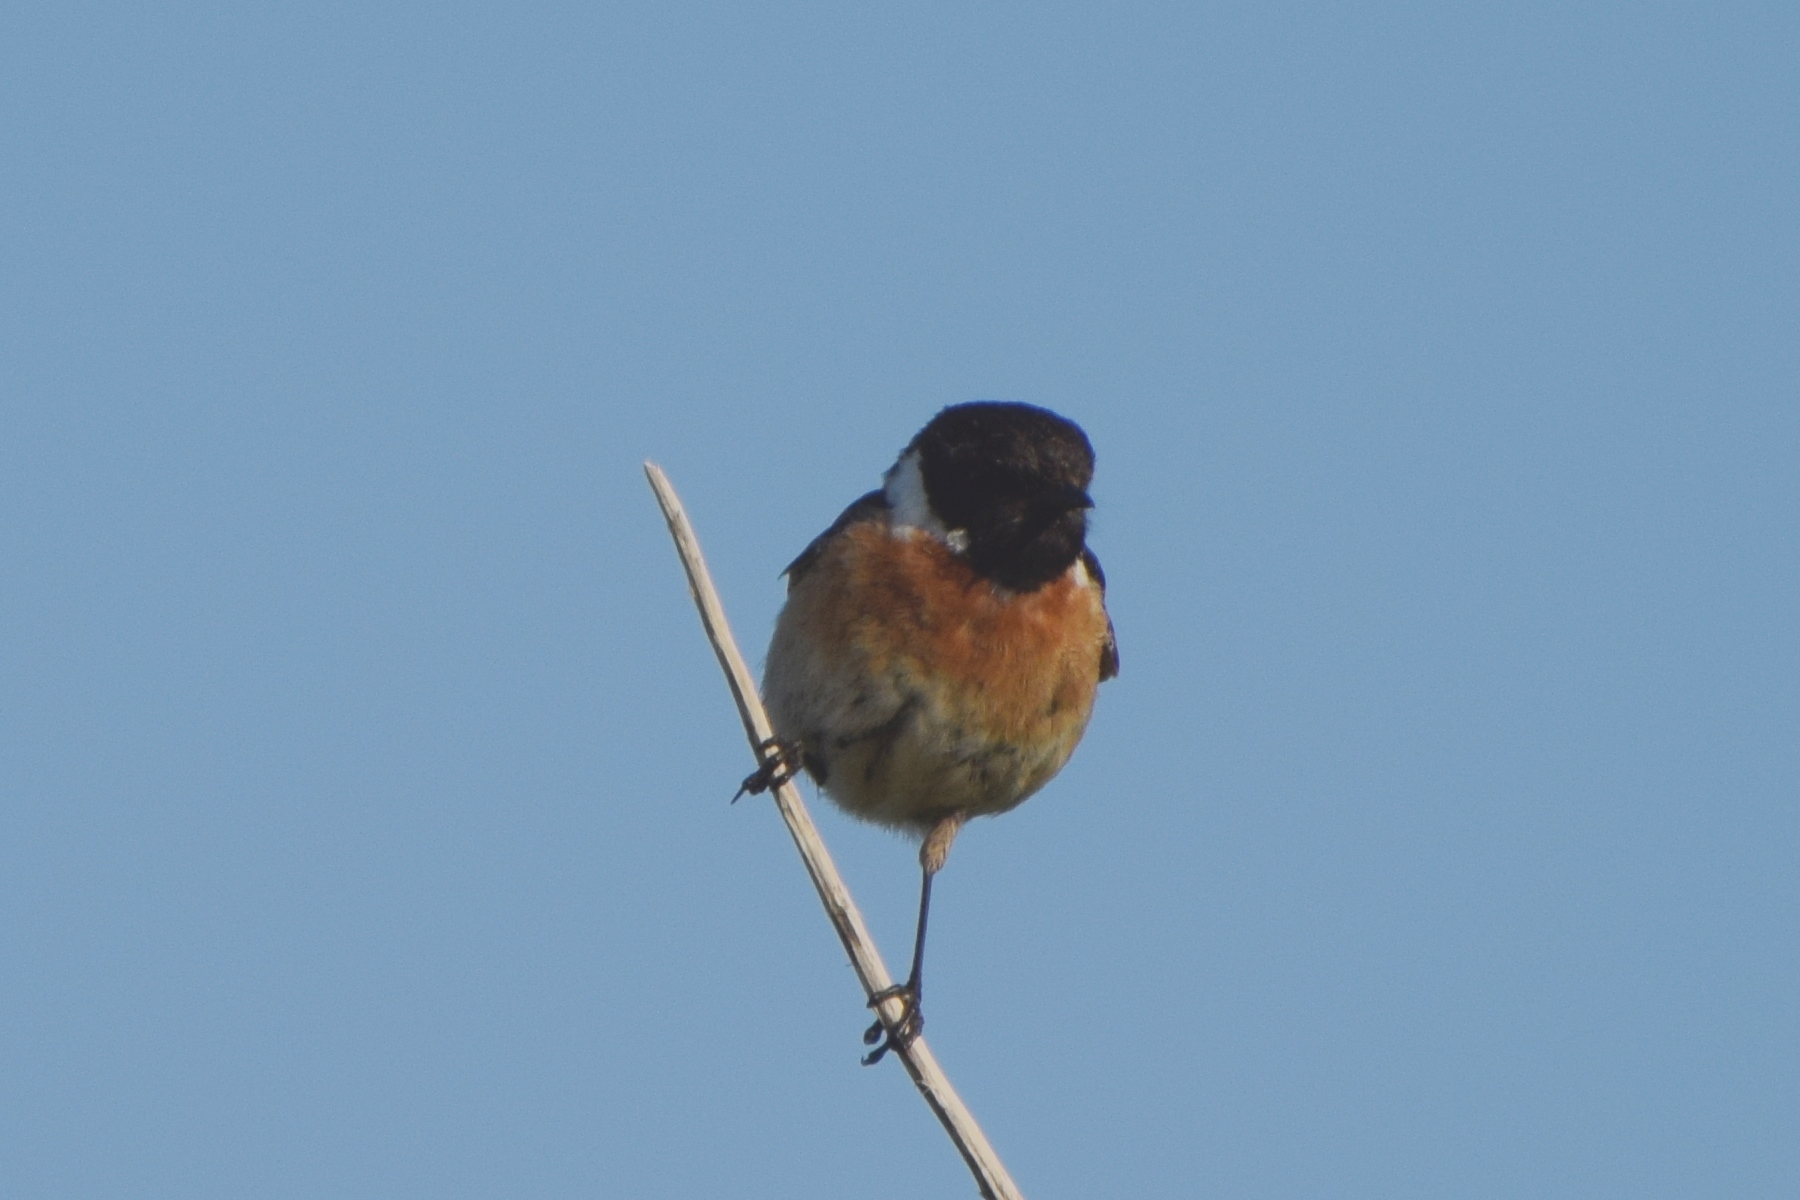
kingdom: Animalia
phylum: Chordata
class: Aves
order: Passeriformes
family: Muscicapidae
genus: Saxicola
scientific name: Saxicola rubicola
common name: European stonechat
